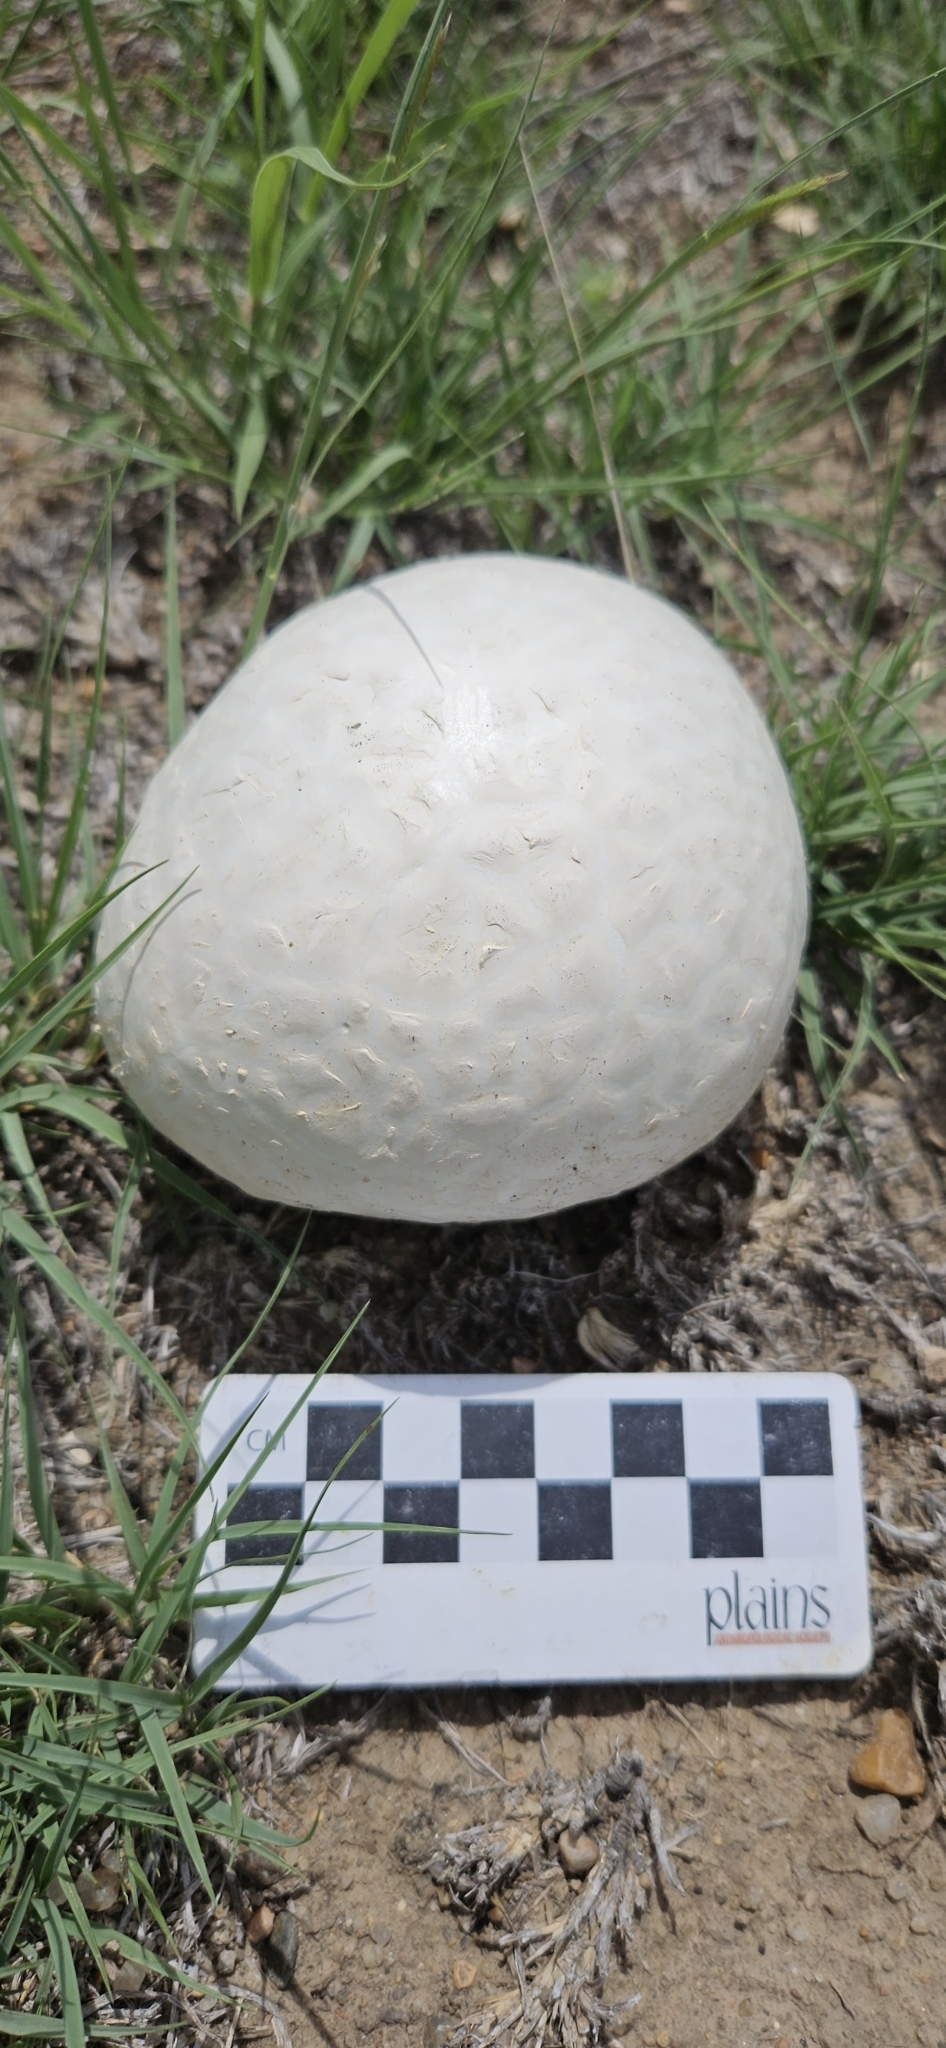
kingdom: Fungi
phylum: Basidiomycota
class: Agaricomycetes
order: Agaricales
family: Lycoperdaceae
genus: Calvatia
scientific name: Calvatia booniana
